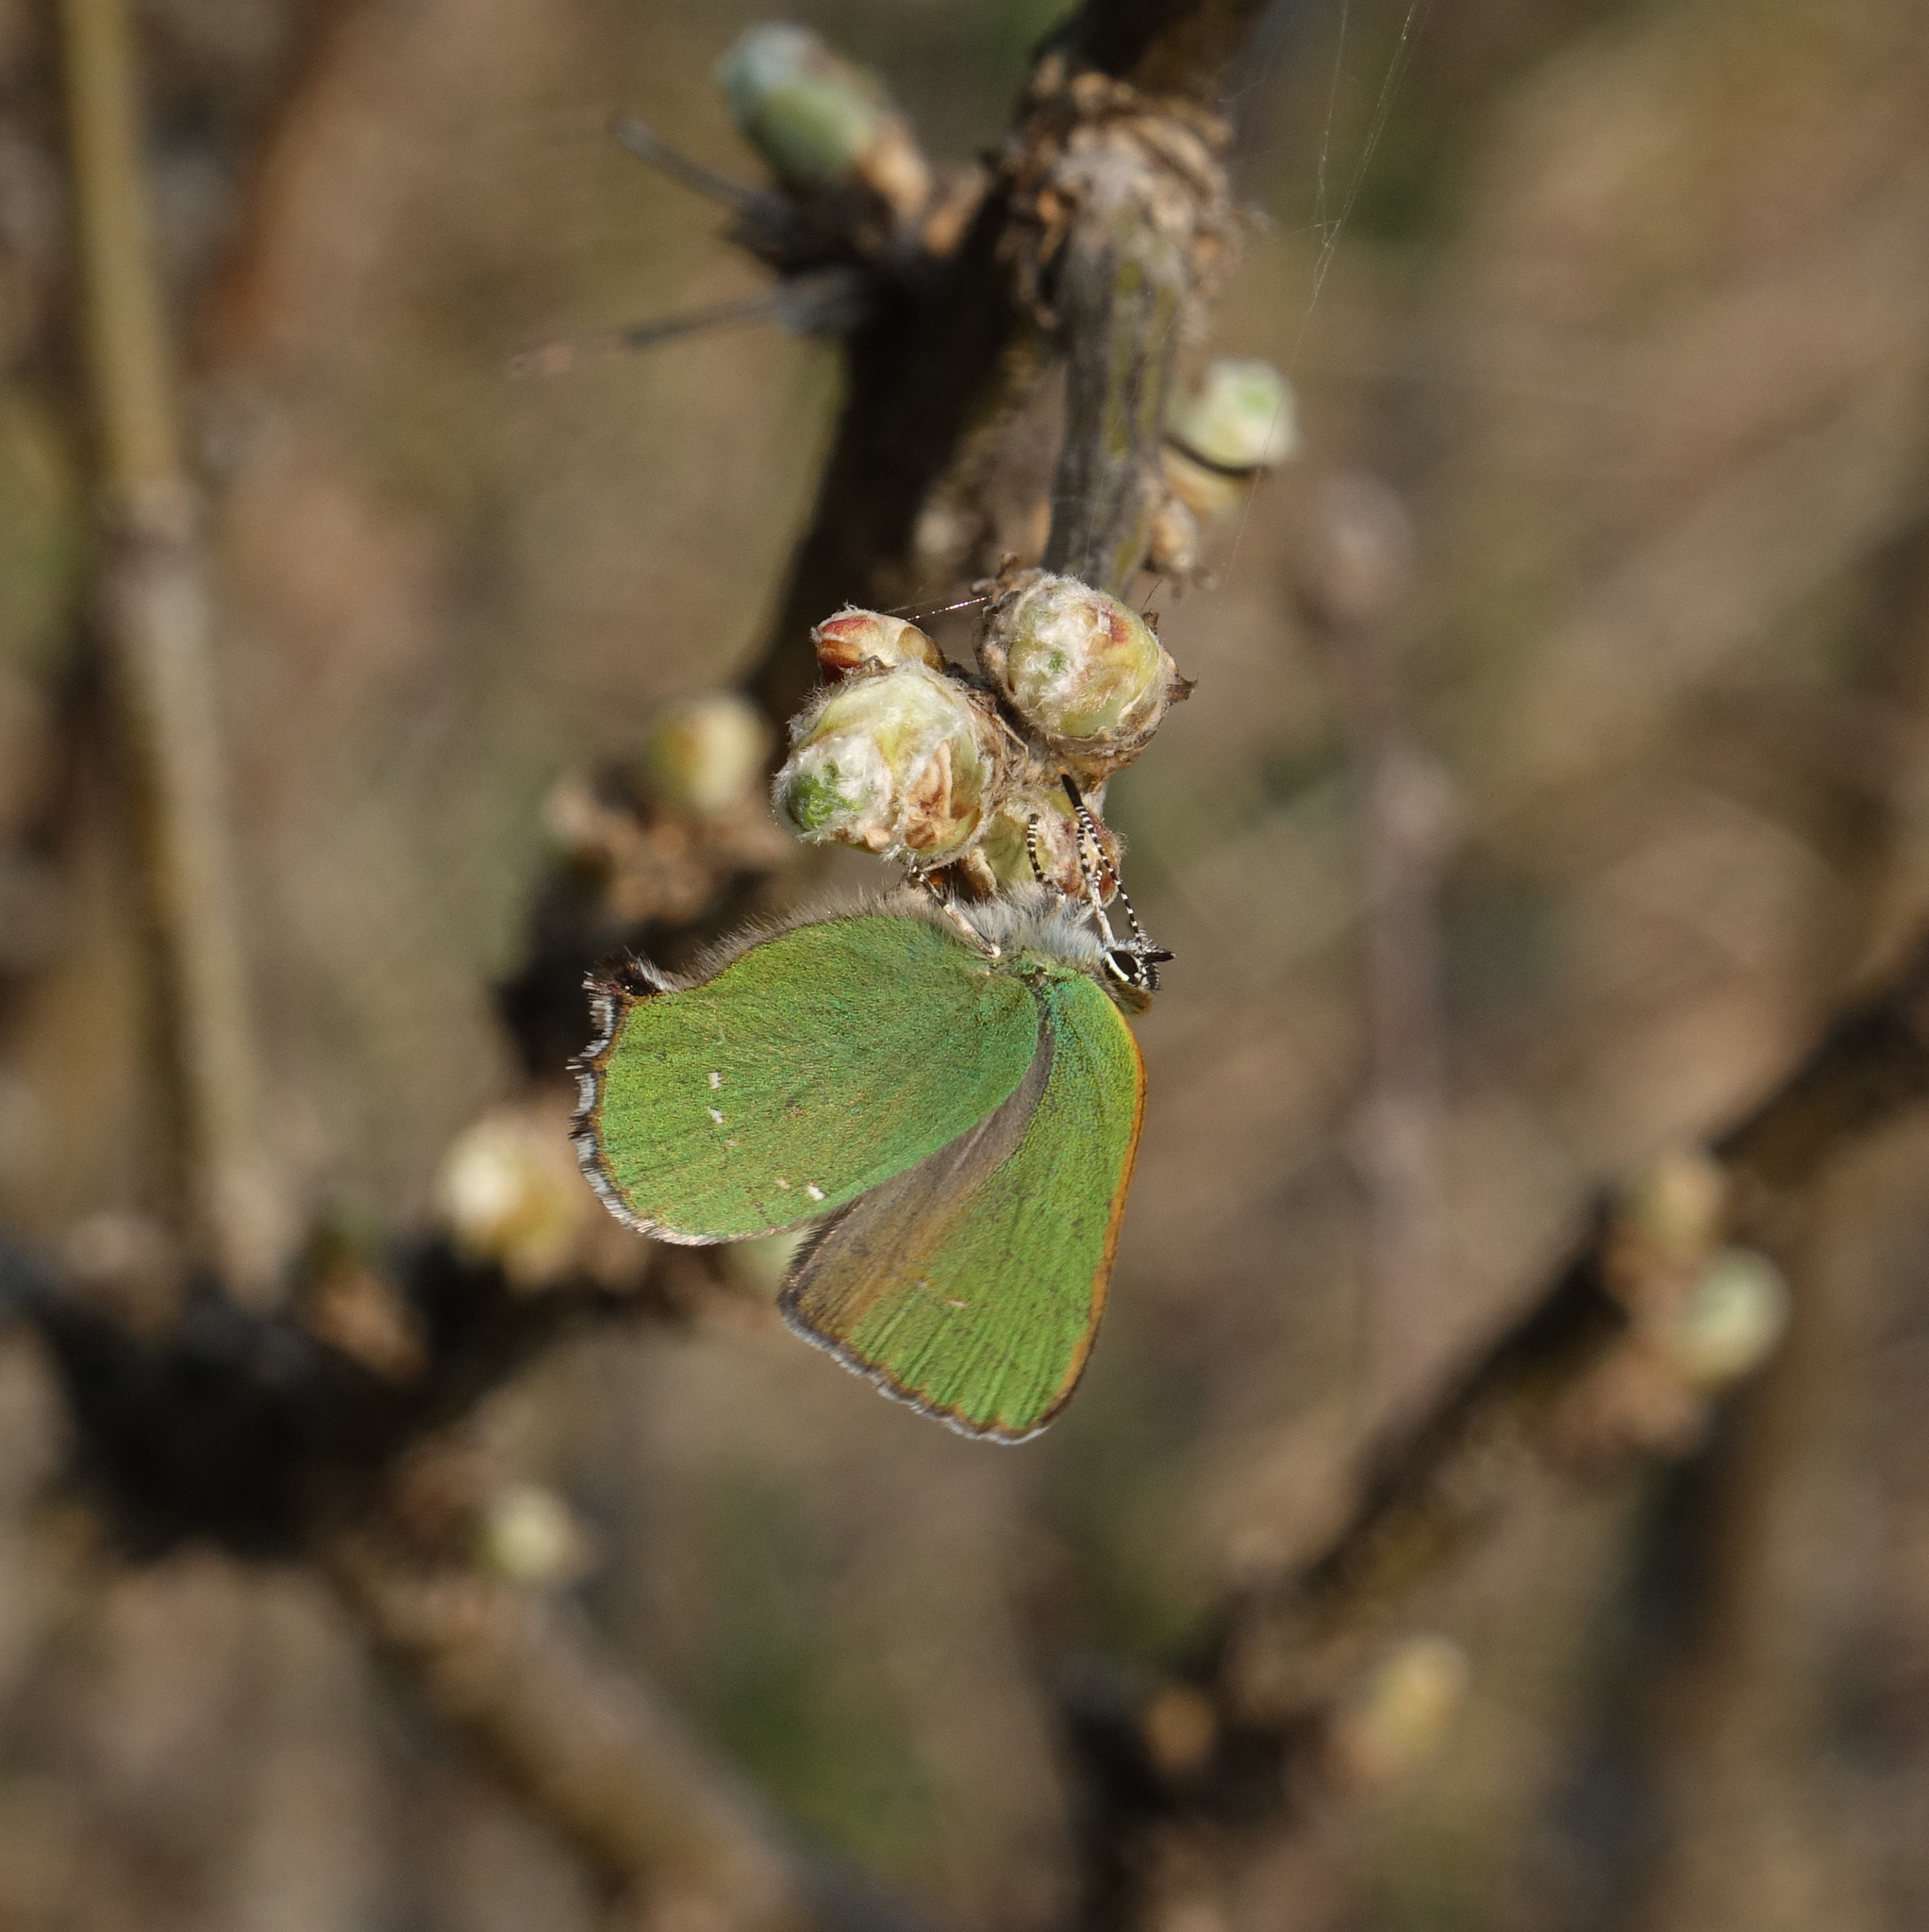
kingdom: Animalia
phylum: Arthropoda
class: Insecta
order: Lepidoptera
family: Lycaenidae
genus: Callophrys
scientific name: Callophrys rubi
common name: Green hairstreak
